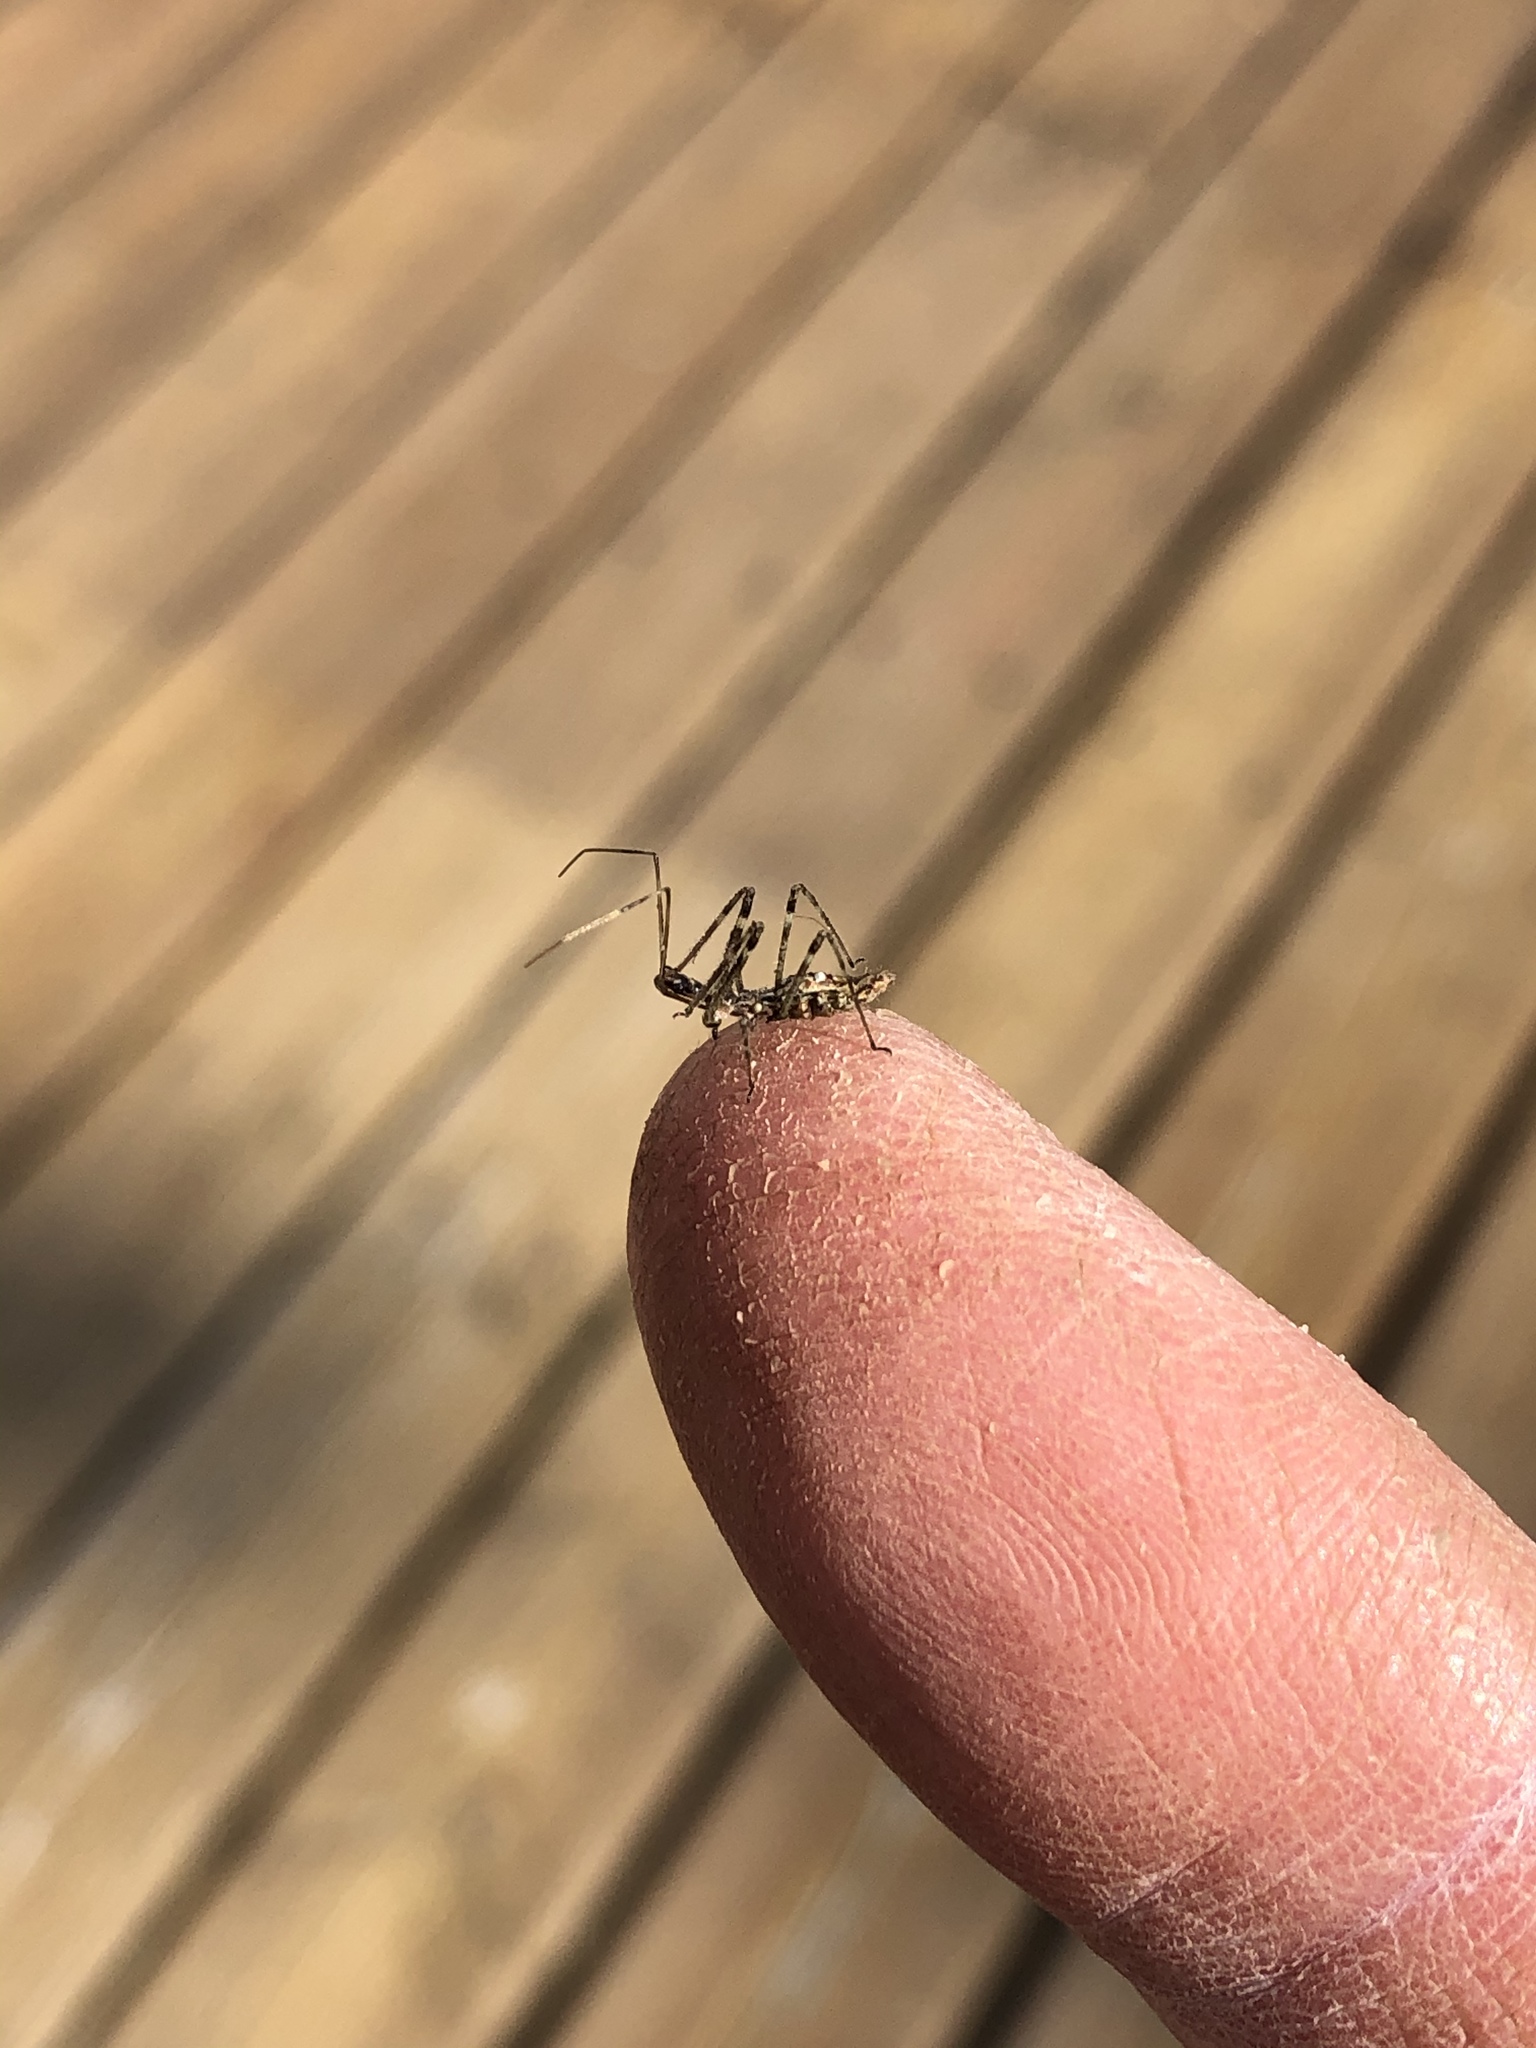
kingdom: Animalia
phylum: Arthropoda
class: Insecta
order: Hemiptera
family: Reduviidae
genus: Zelus
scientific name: Zelus tetracanthus
